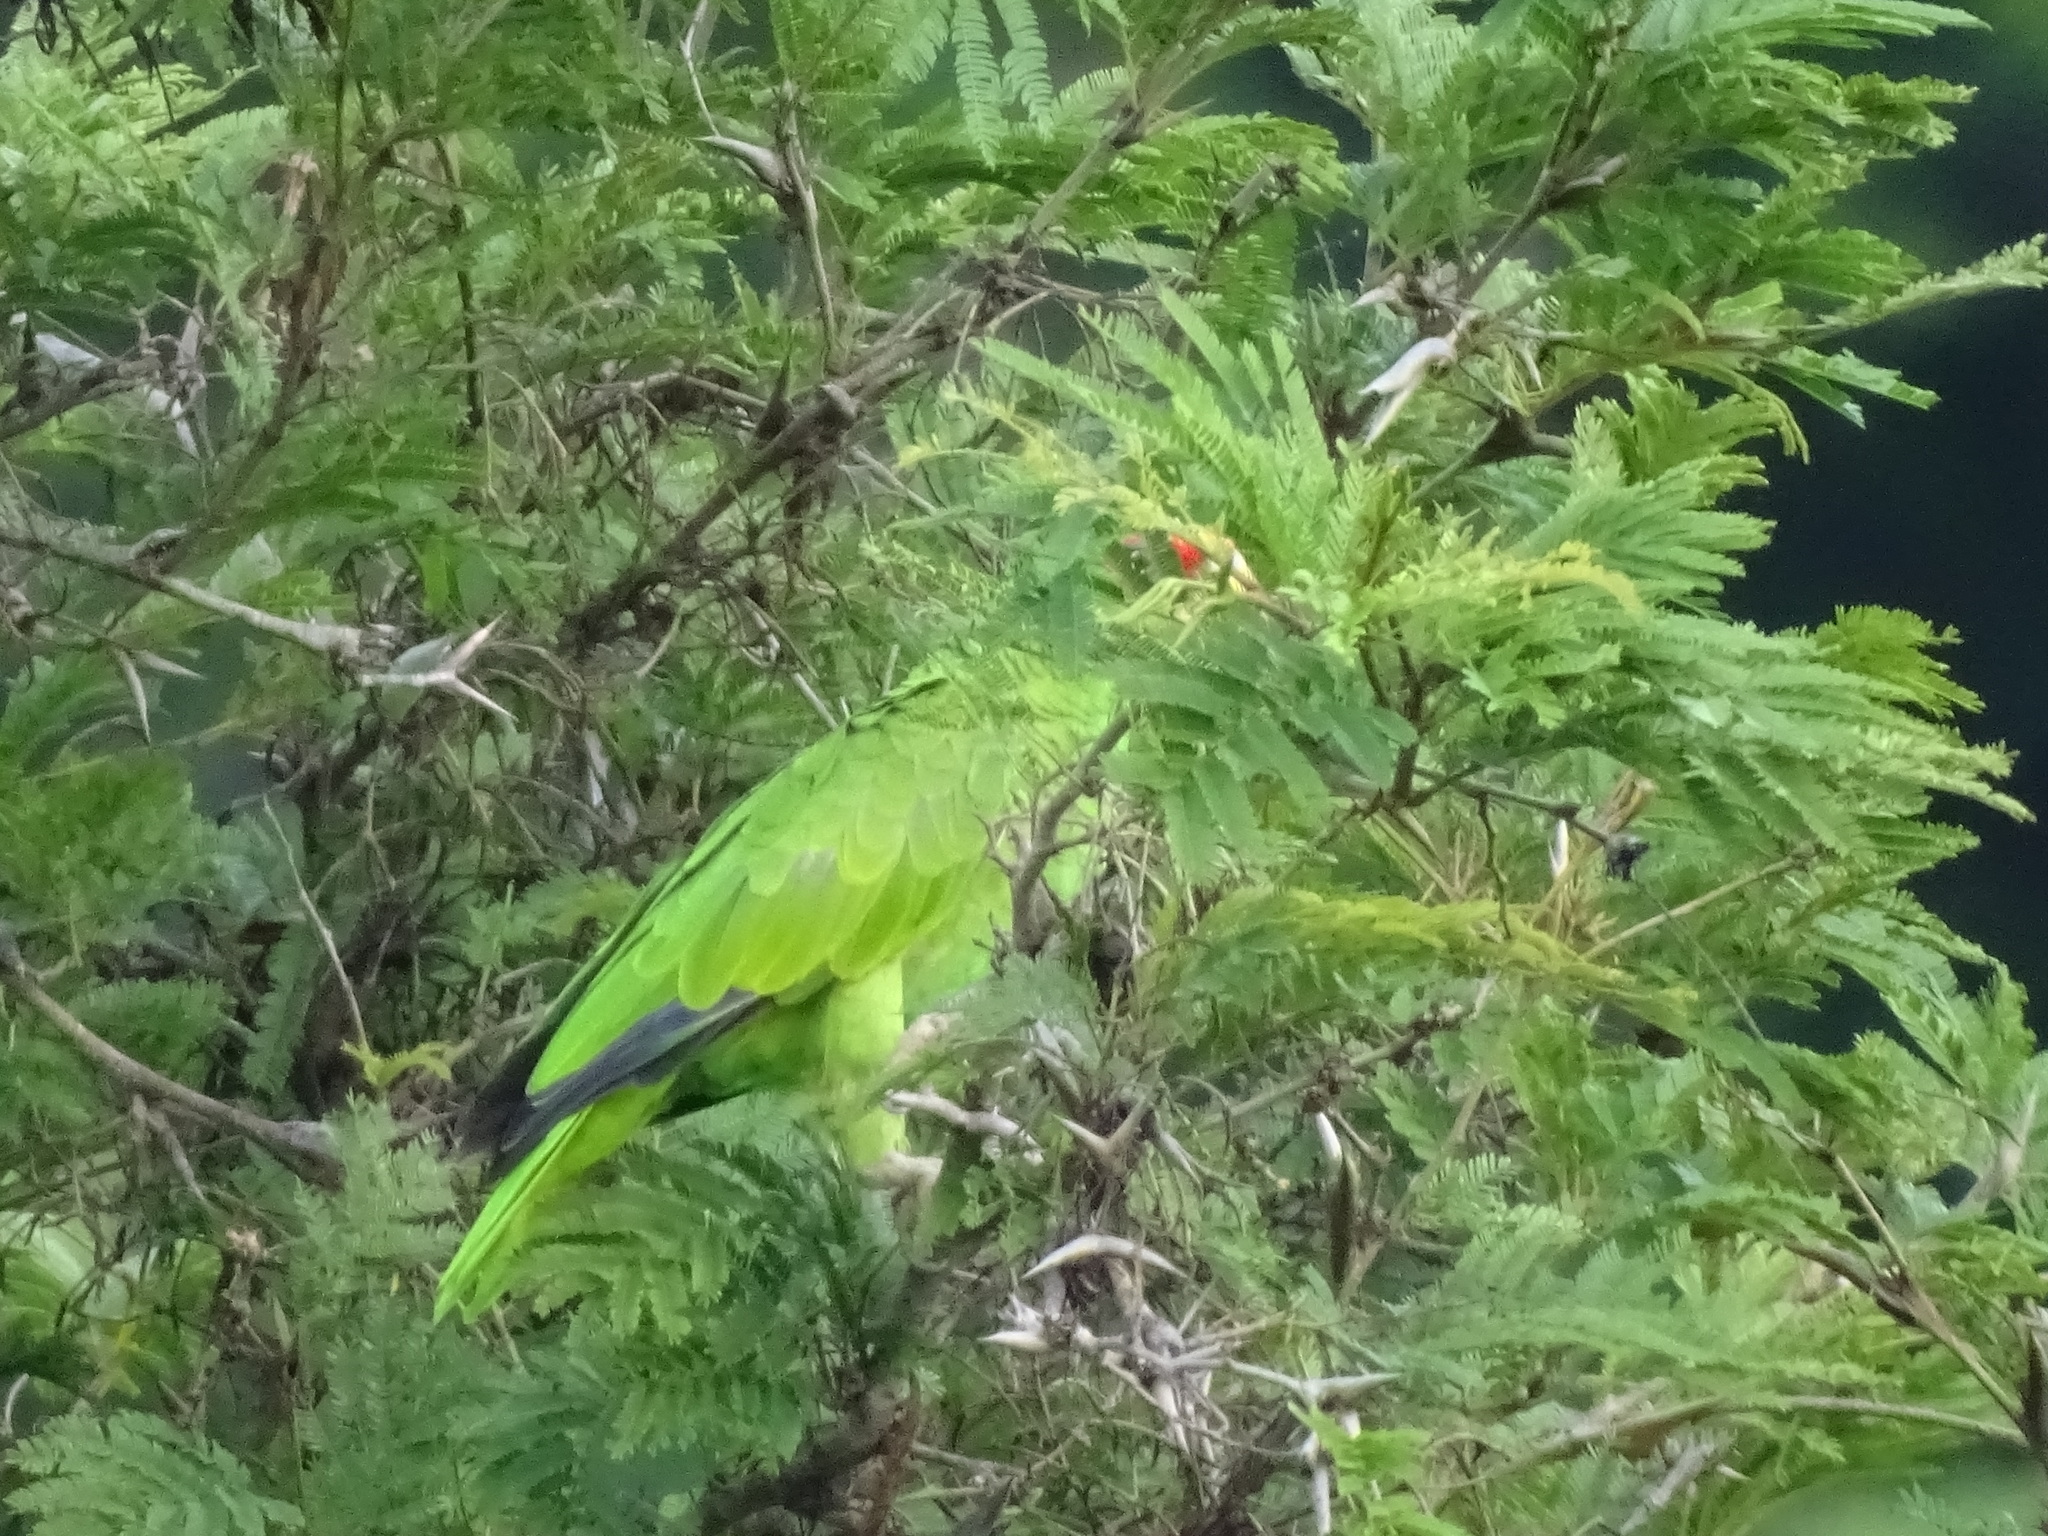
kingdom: Animalia
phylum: Chordata
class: Aves
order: Psittaciformes
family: Psittacidae
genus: Amazona
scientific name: Amazona albifrons
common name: White-fronted amazon
